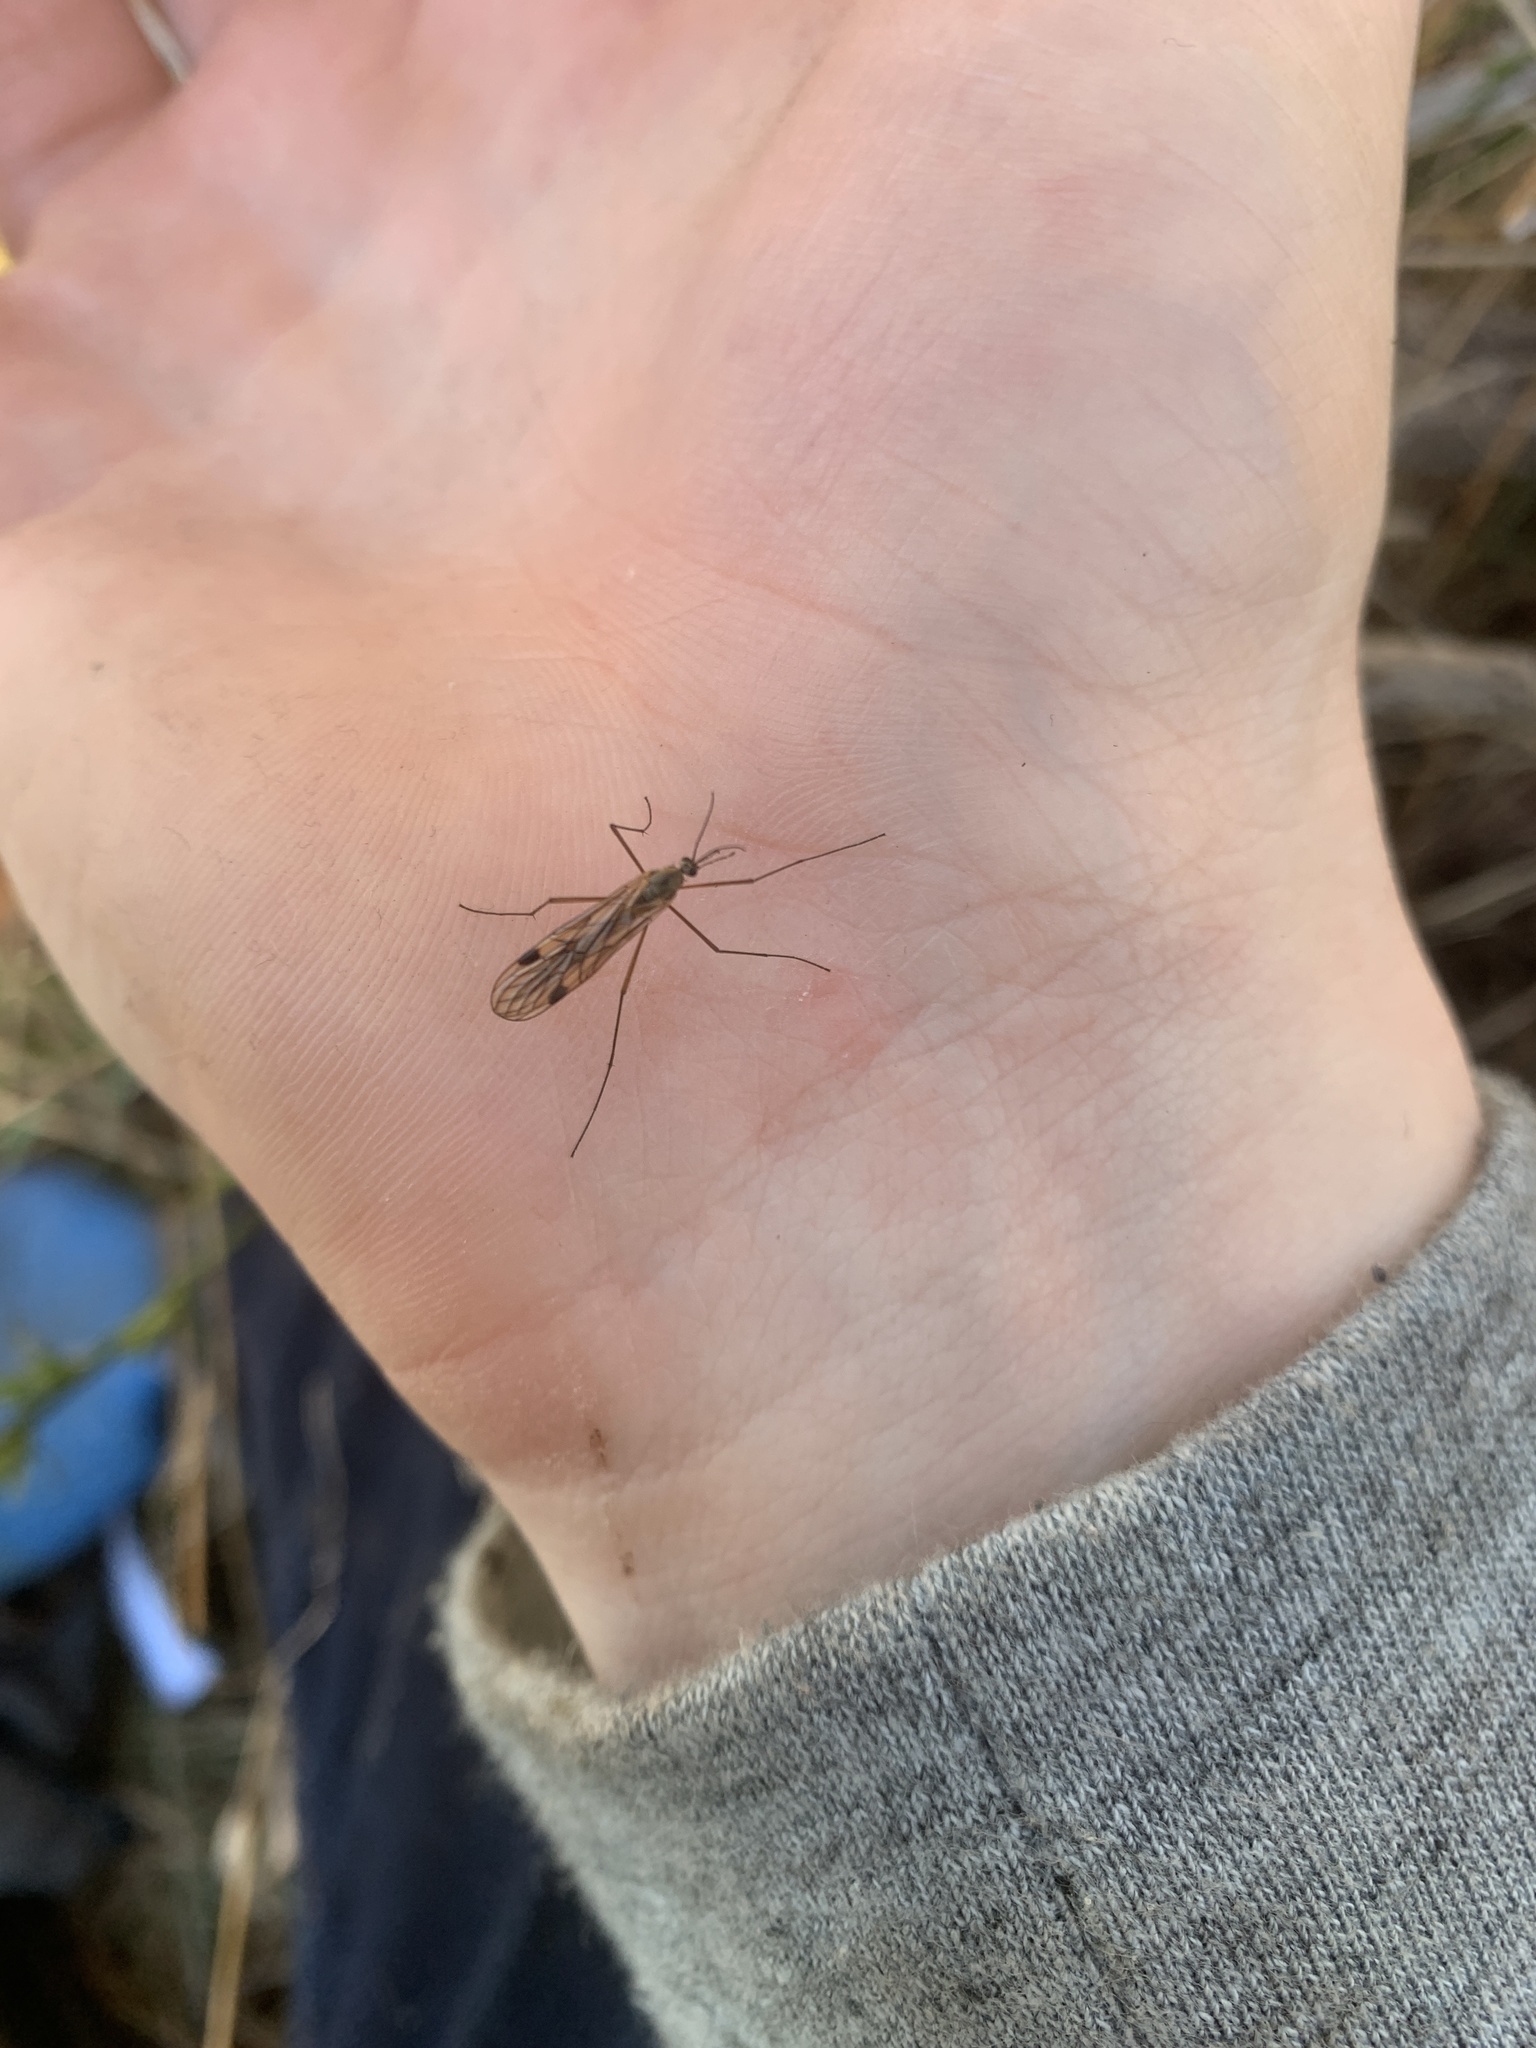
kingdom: Animalia
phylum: Arthropoda
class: Insecta
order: Diptera
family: Pachyneuridae
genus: Cramptonomyia
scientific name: Cramptonomyia spenceri
